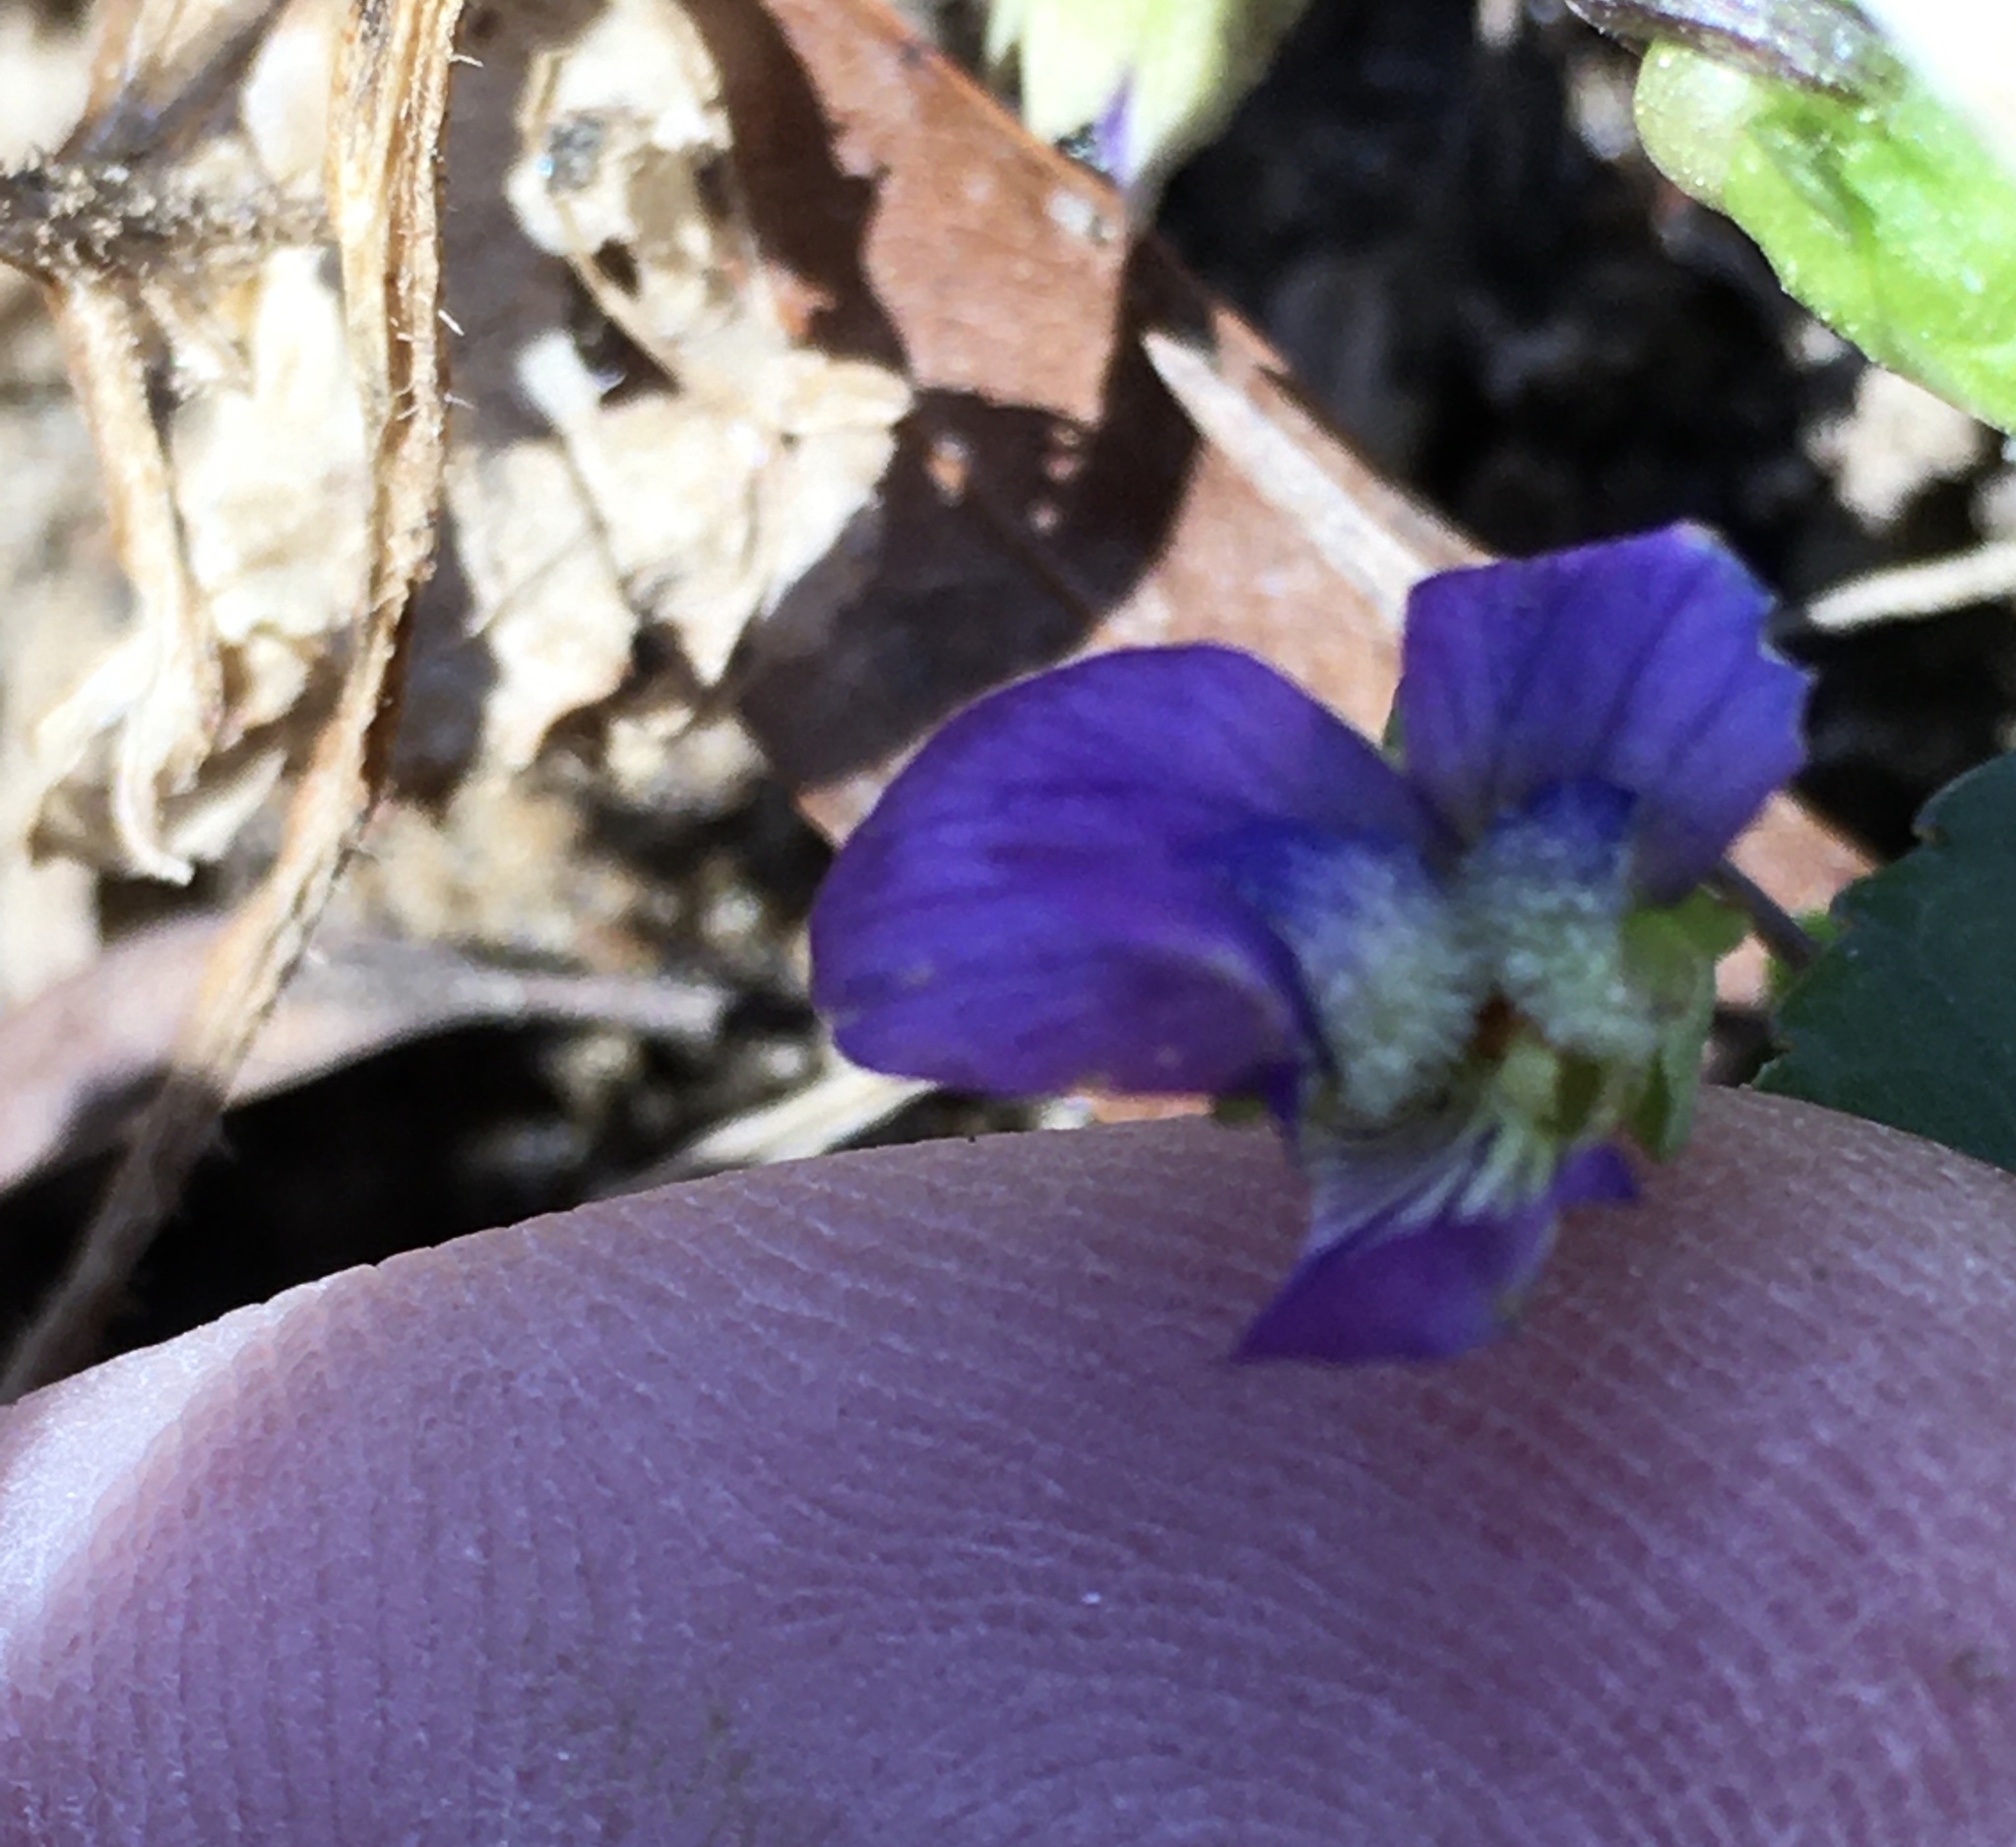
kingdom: Plantae
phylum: Tracheophyta
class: Magnoliopsida
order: Malpighiales
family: Violaceae
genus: Viola
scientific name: Viola sororia
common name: Dooryard violet
